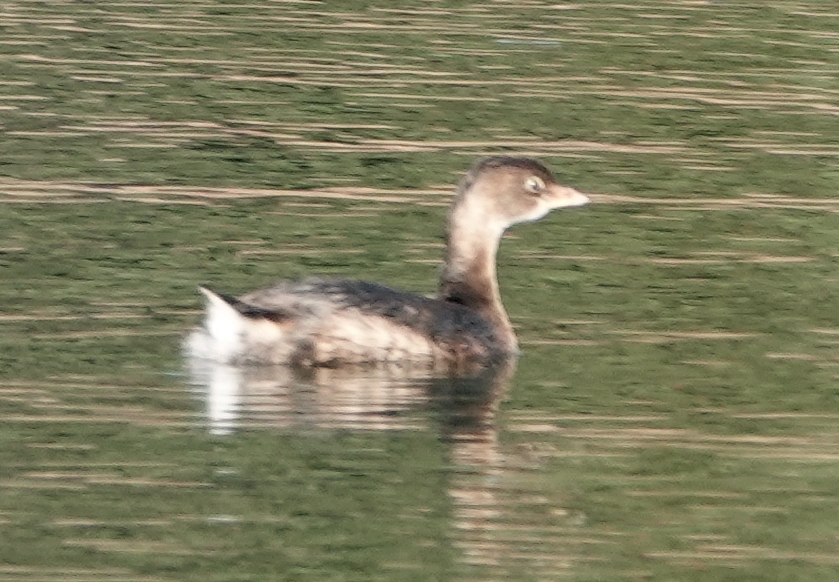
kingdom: Animalia
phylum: Chordata
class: Aves
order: Podicipediformes
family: Podicipedidae
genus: Podilymbus
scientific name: Podilymbus podiceps
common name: Pied-billed grebe
